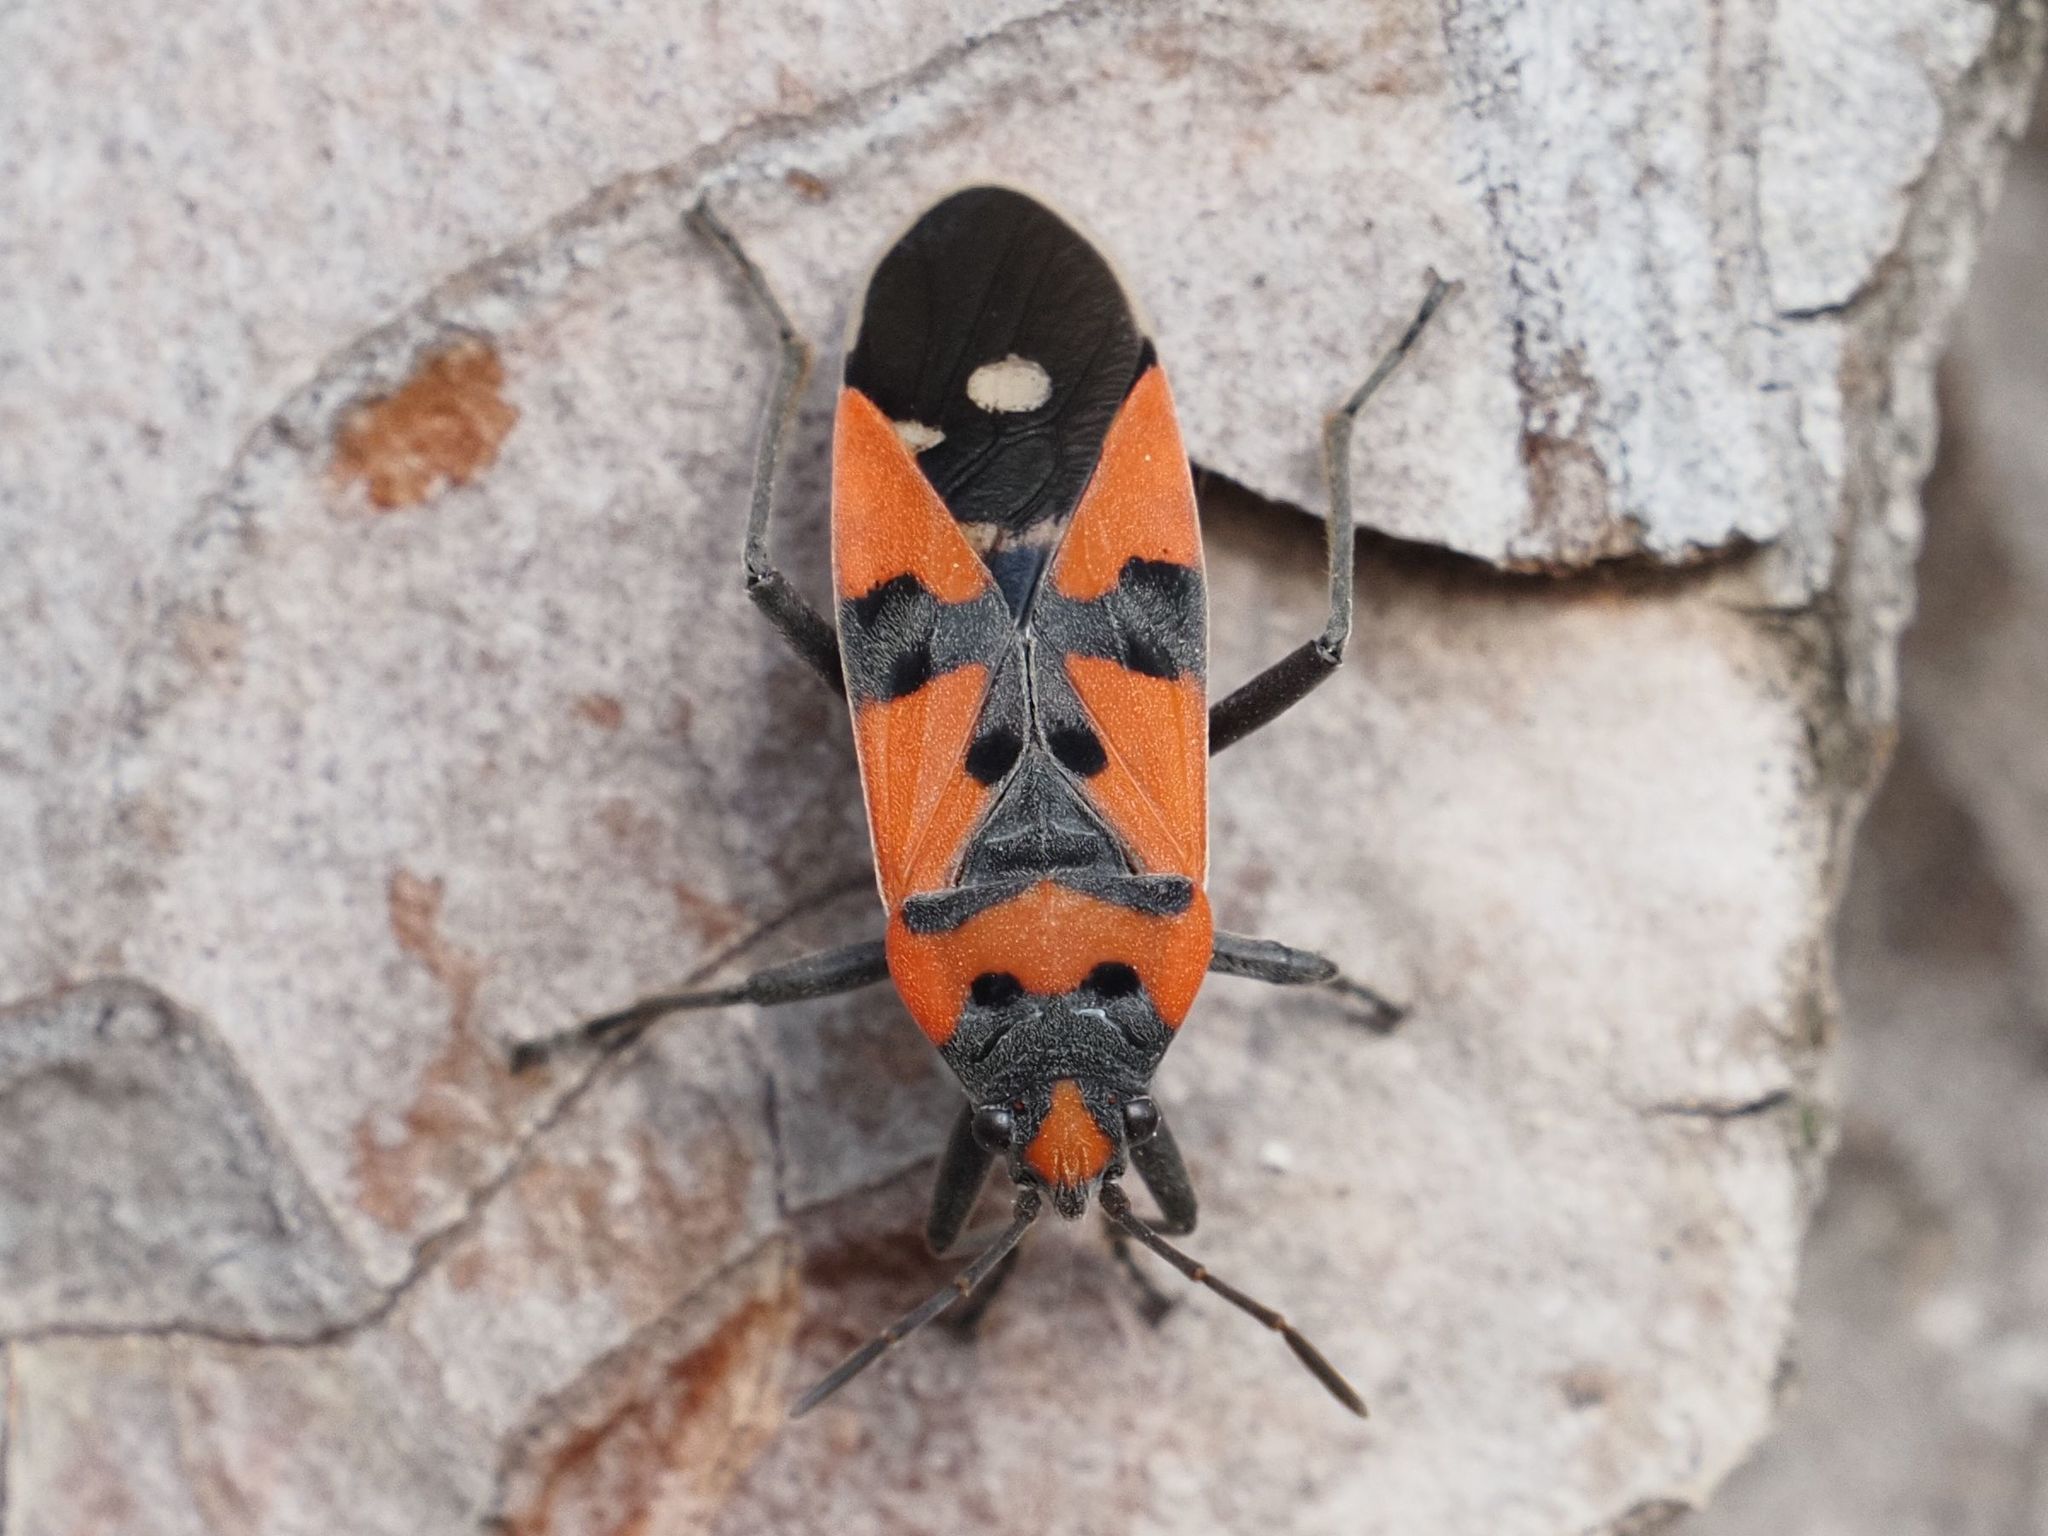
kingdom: Animalia
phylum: Arthropoda
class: Insecta
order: Hemiptera
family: Lygaeidae
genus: Lygaeus
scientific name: Lygaeus equestris
